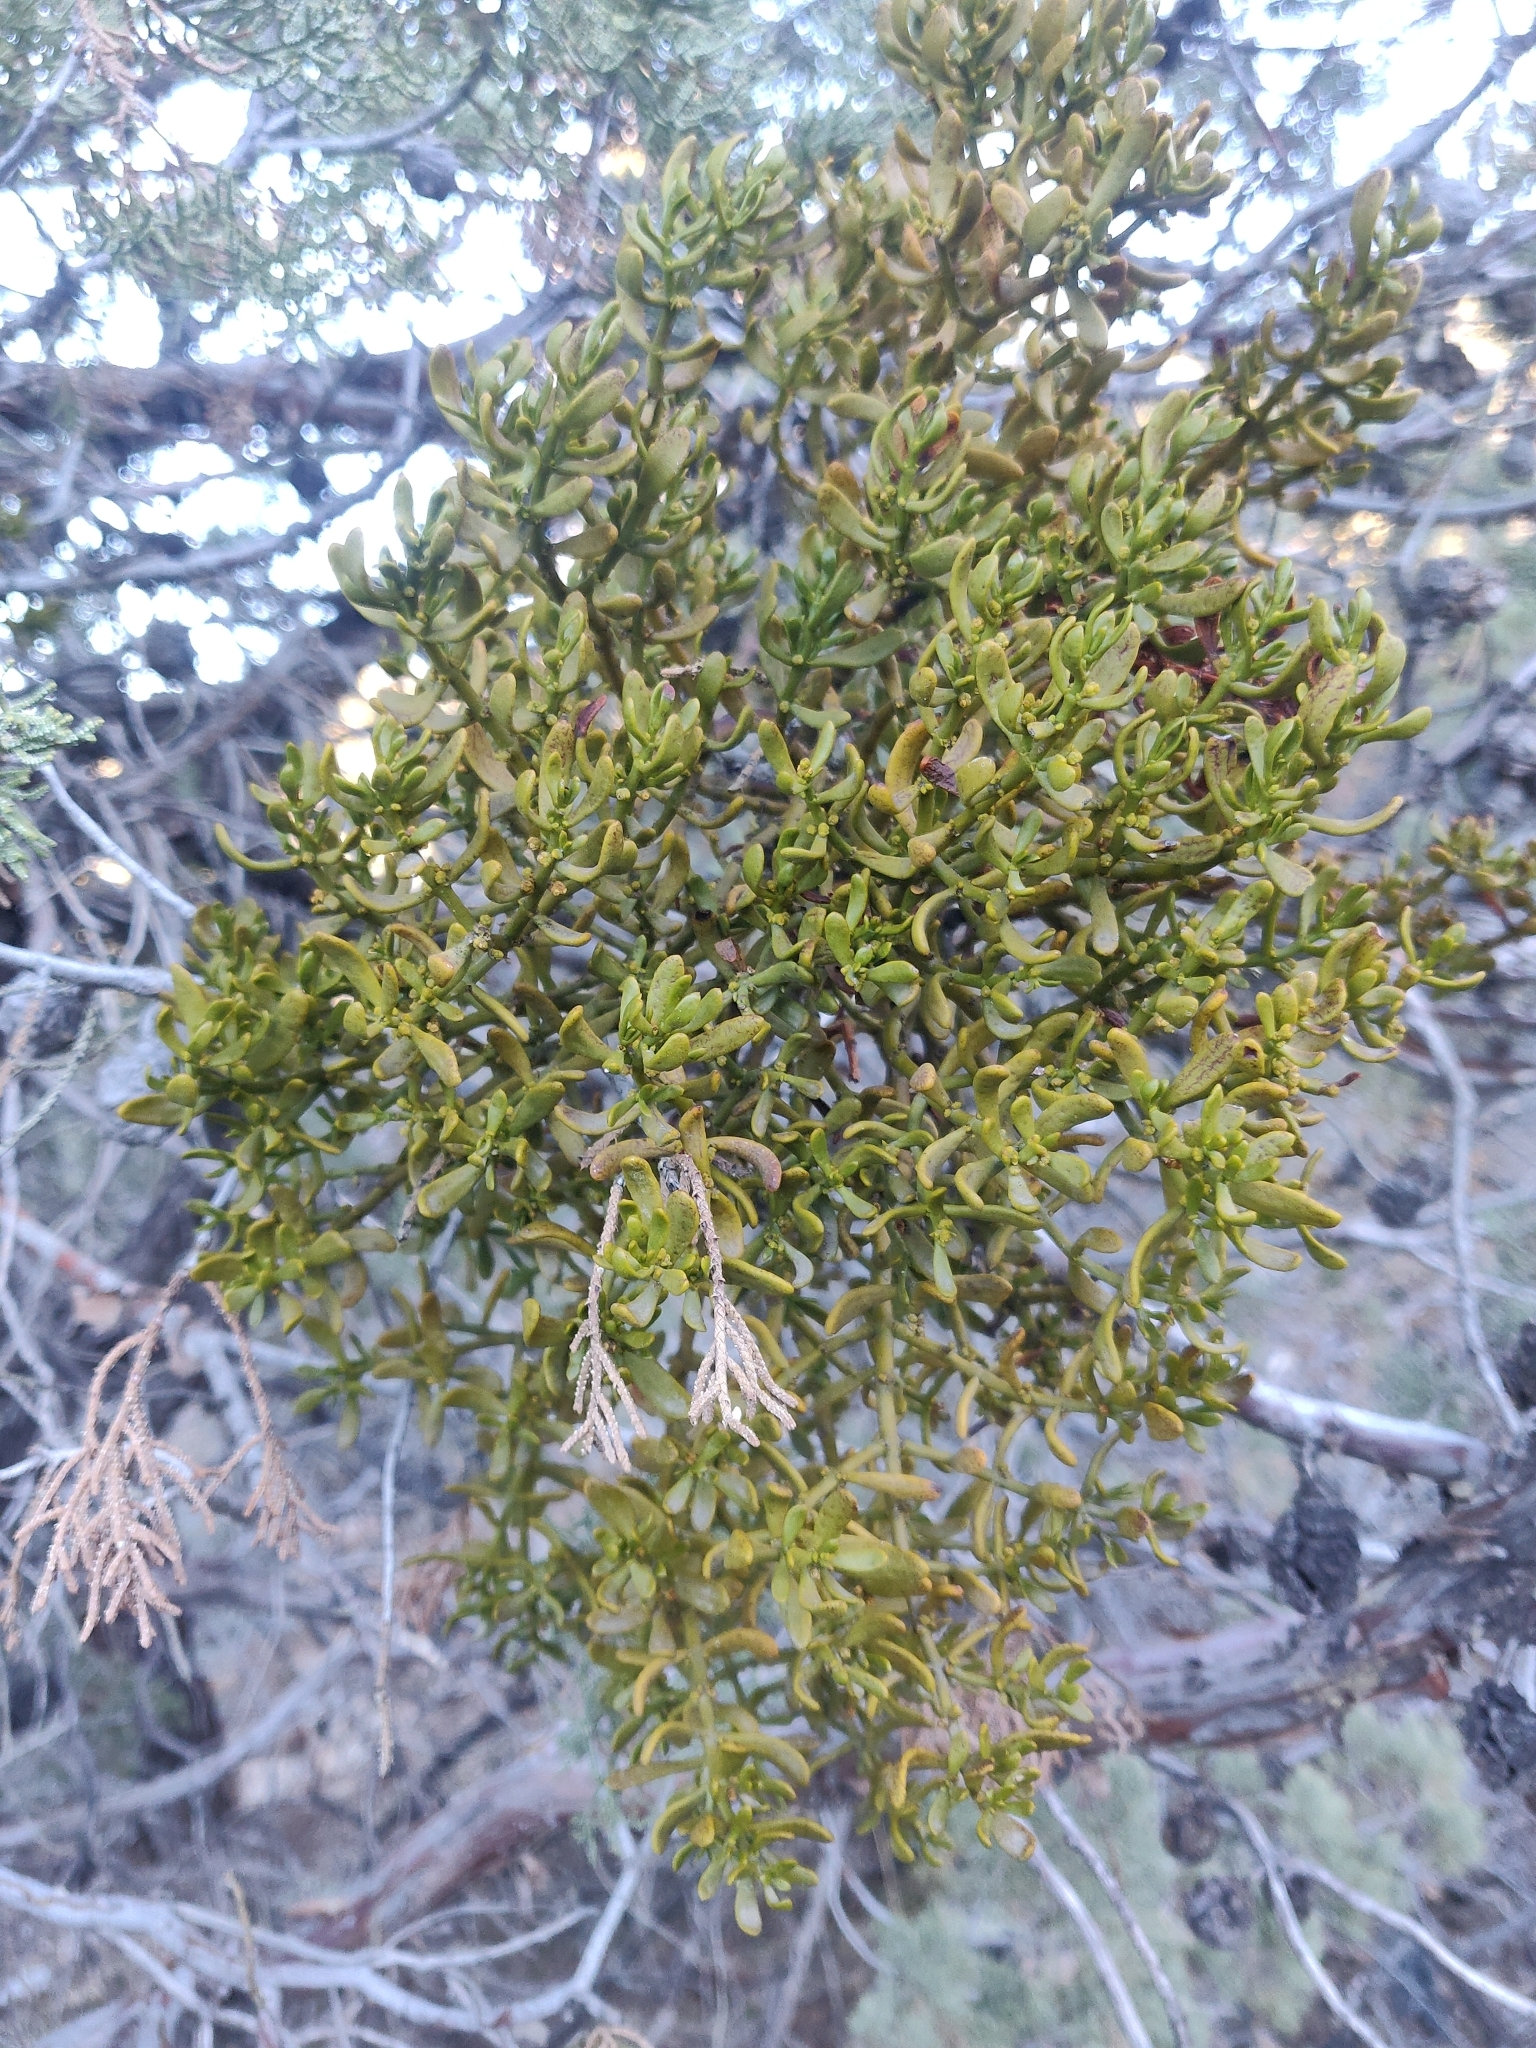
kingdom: Plantae
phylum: Tracheophyta
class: Magnoliopsida
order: Santalales
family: Viscaceae
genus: Phoradendron
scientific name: Phoradendron bolleanum
